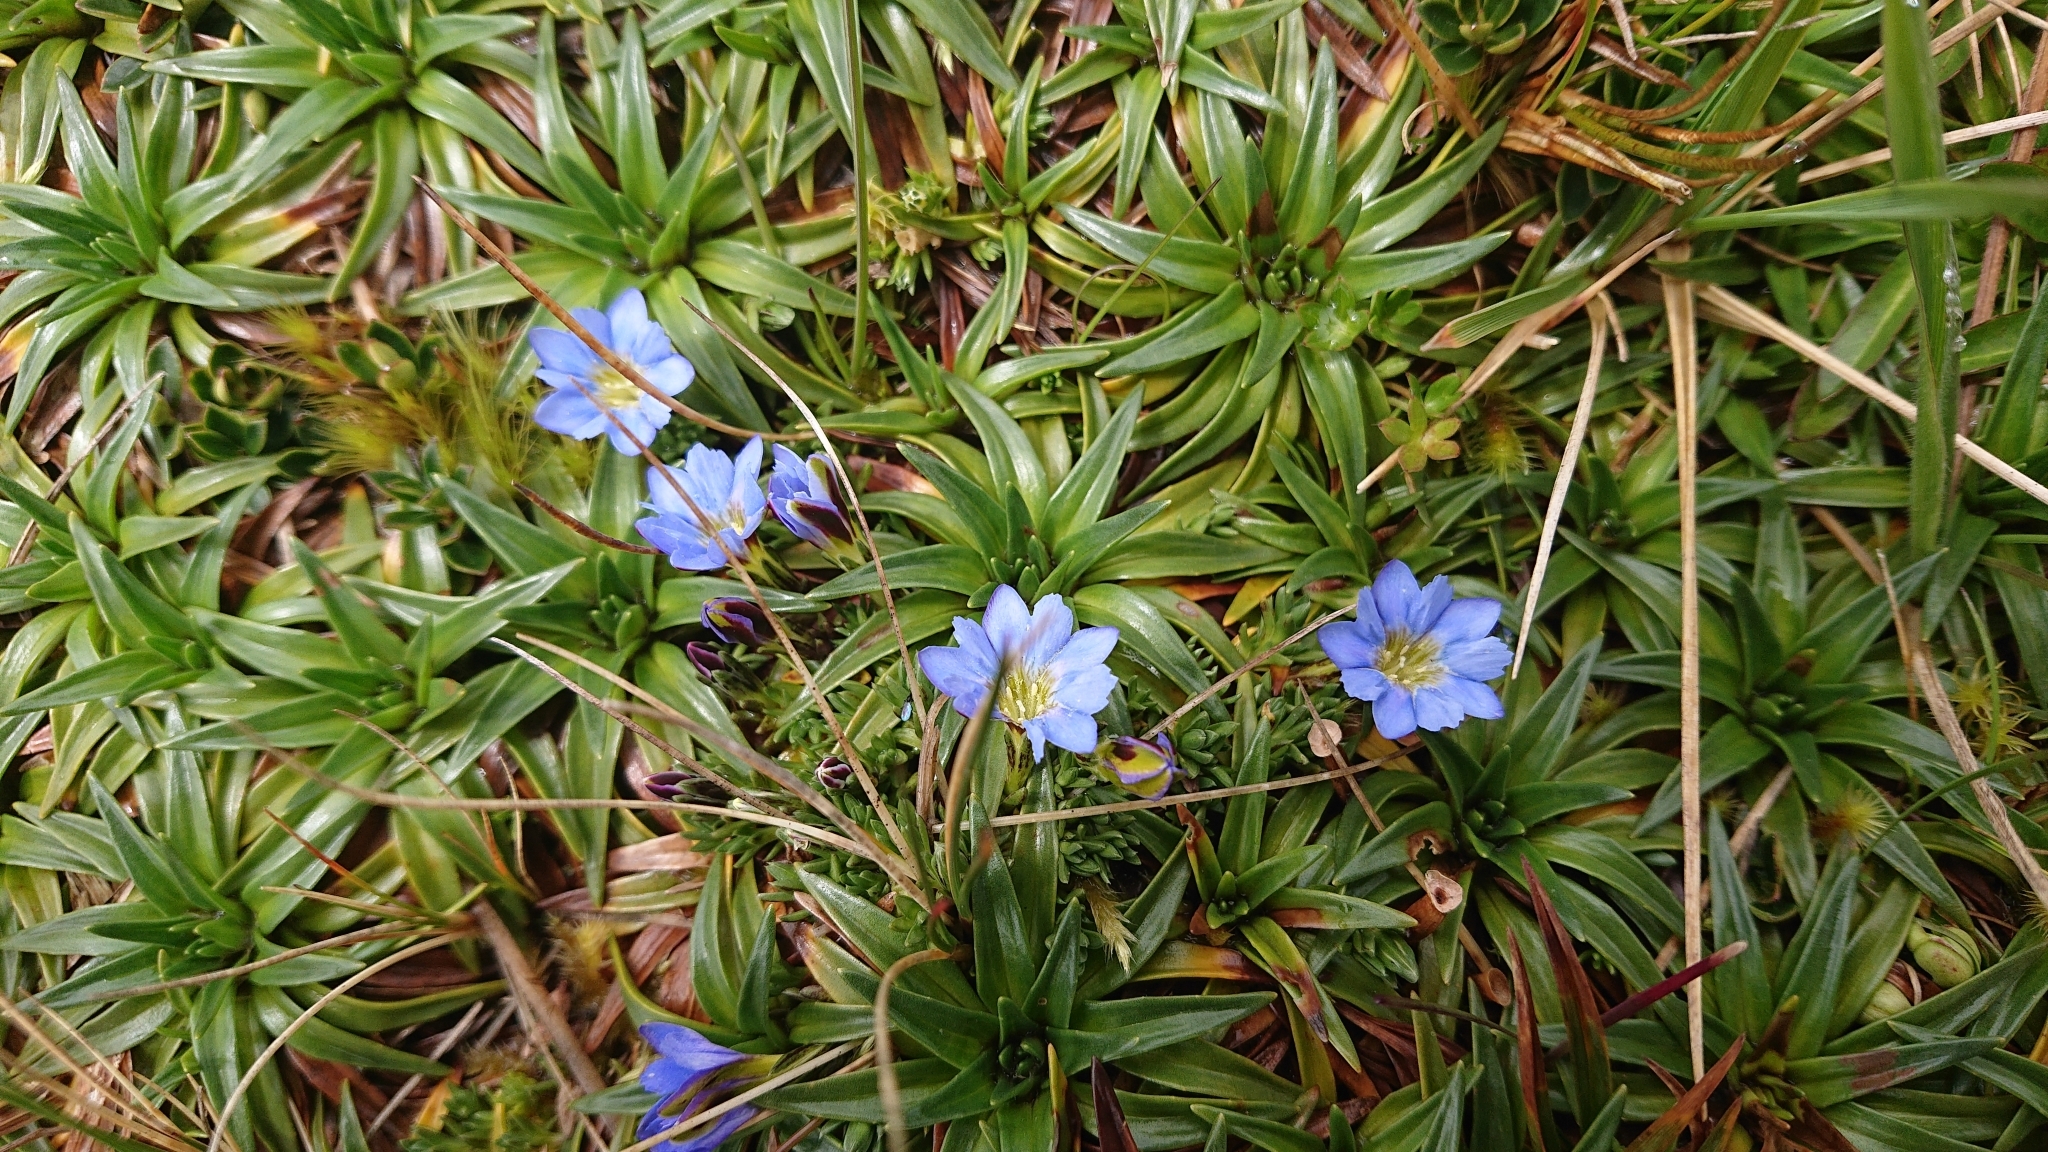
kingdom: Plantae
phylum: Tracheophyta
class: Magnoliopsida
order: Gentianales
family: Gentianaceae
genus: Gentiana
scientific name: Gentiana sedifolia
